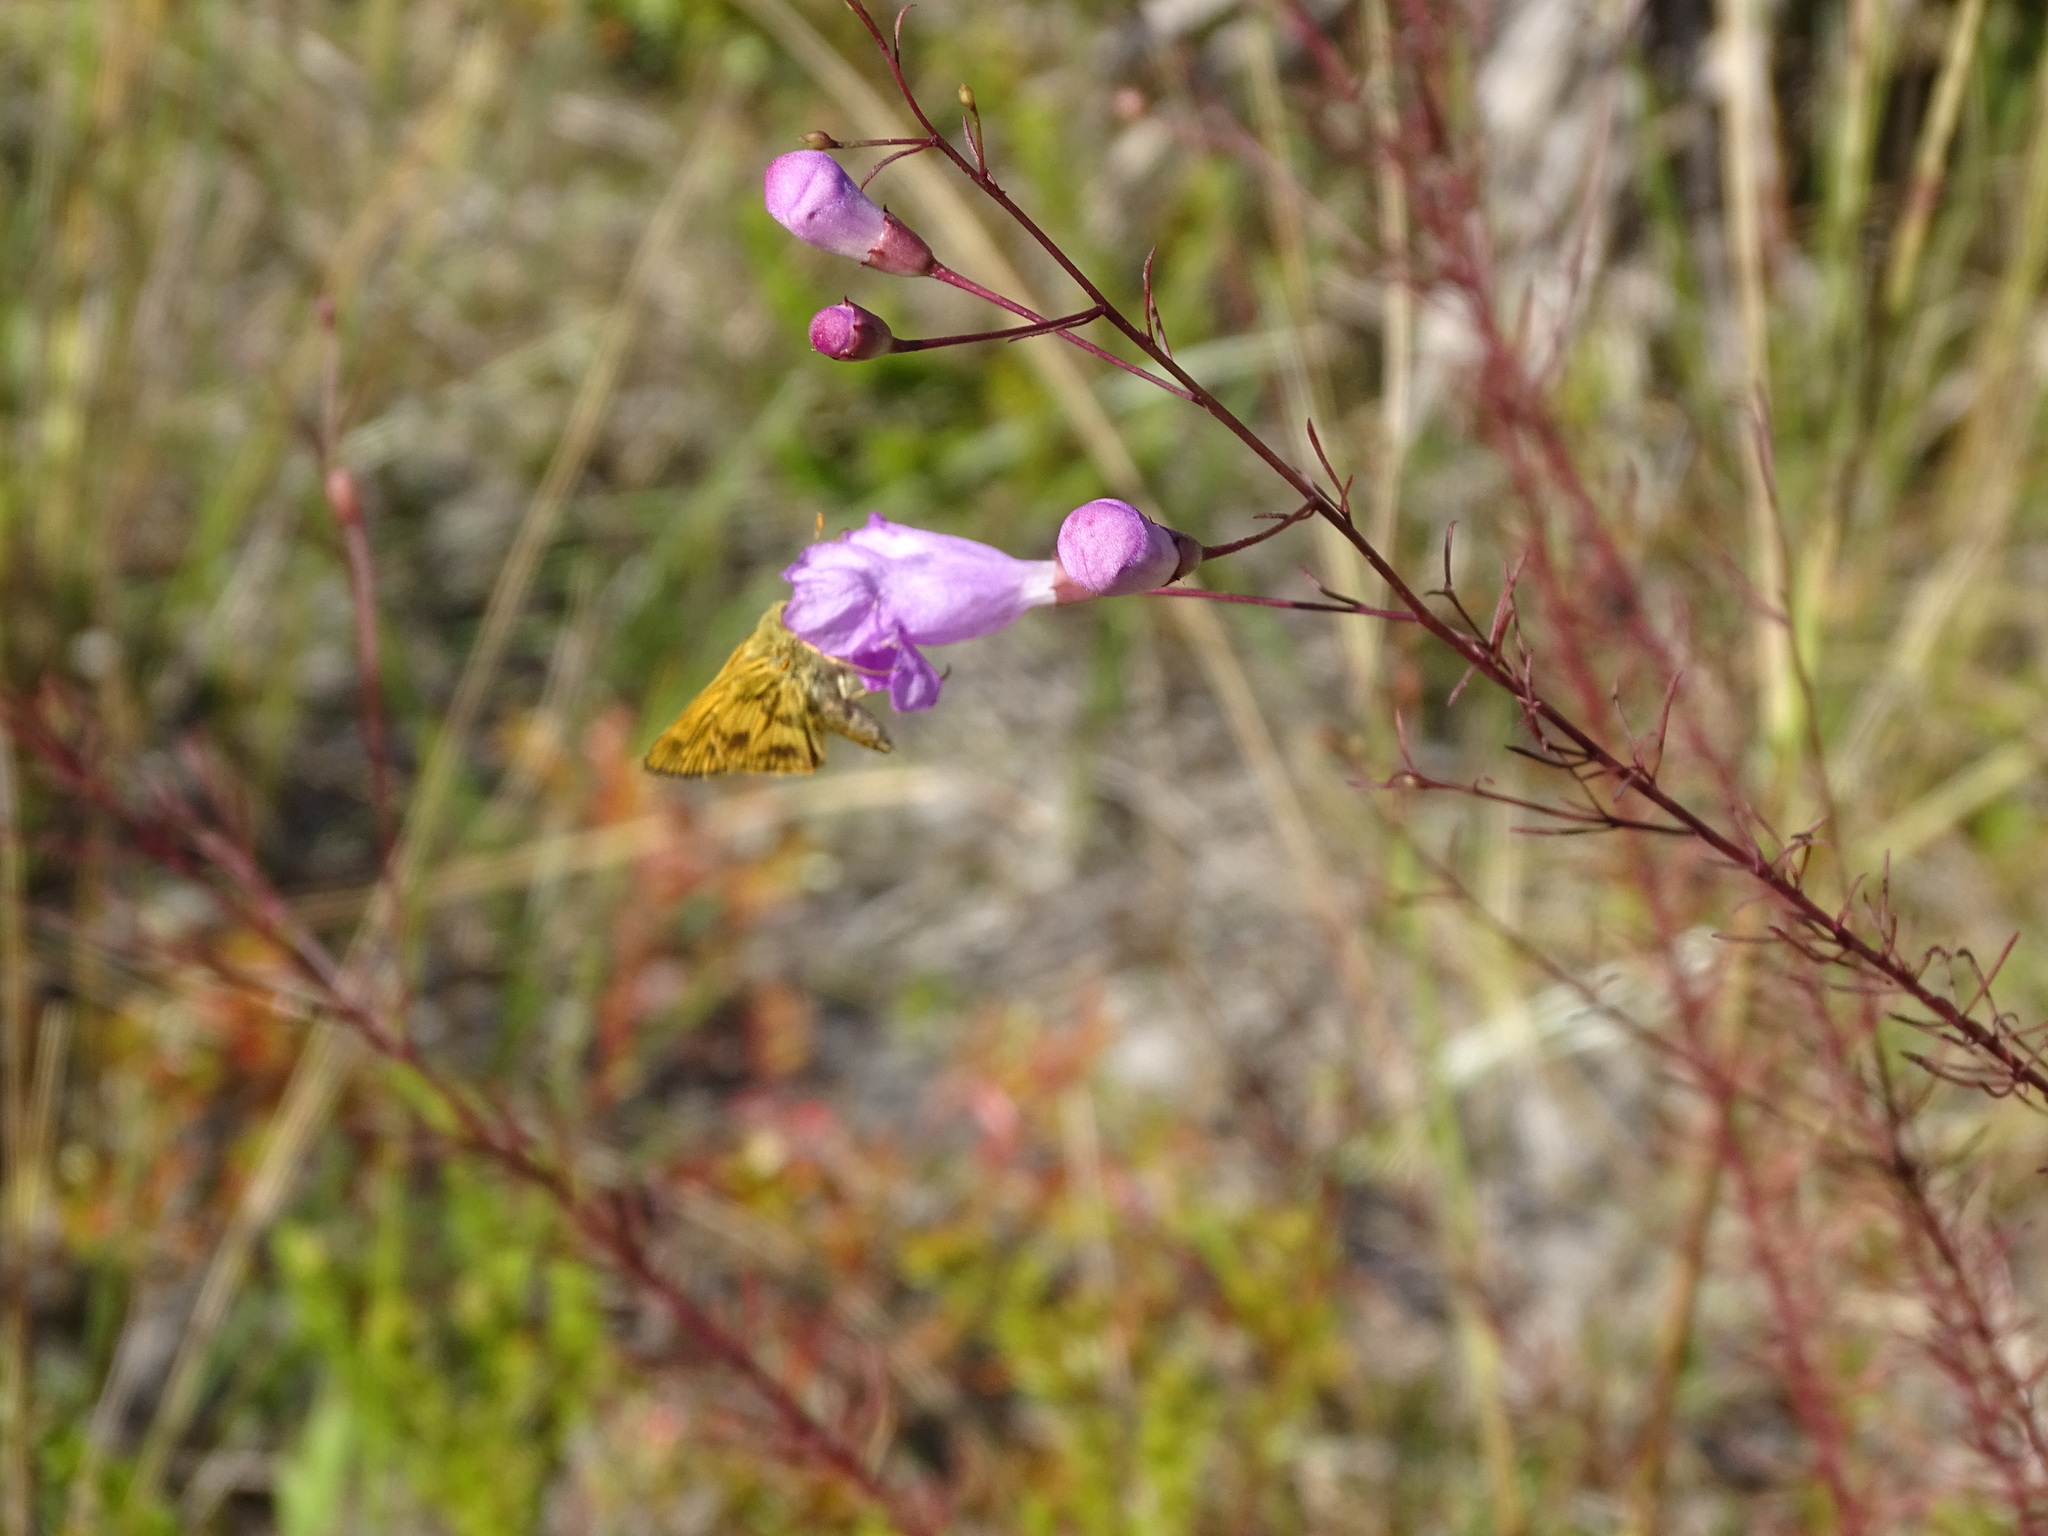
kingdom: Animalia
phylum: Arthropoda
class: Insecta
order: Lepidoptera
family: Hesperiidae
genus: Polites
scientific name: Polites vibex
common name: Whirlabout
